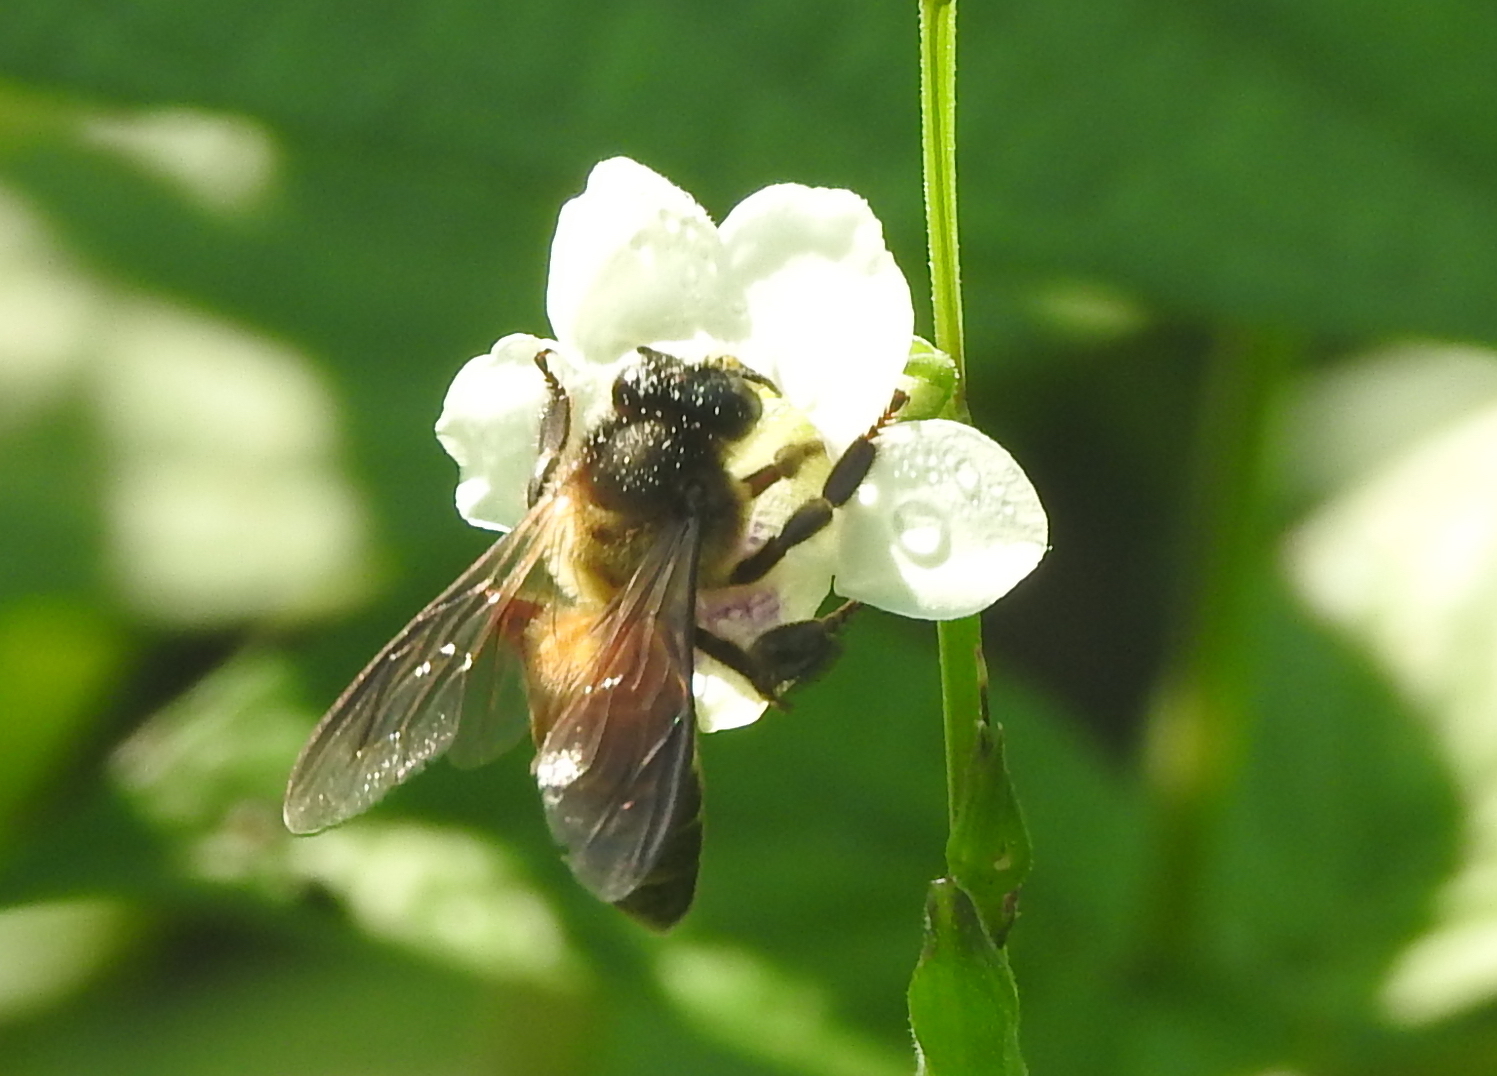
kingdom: Animalia
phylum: Arthropoda
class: Insecta
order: Hymenoptera
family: Apidae
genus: Apis
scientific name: Apis dorsata
